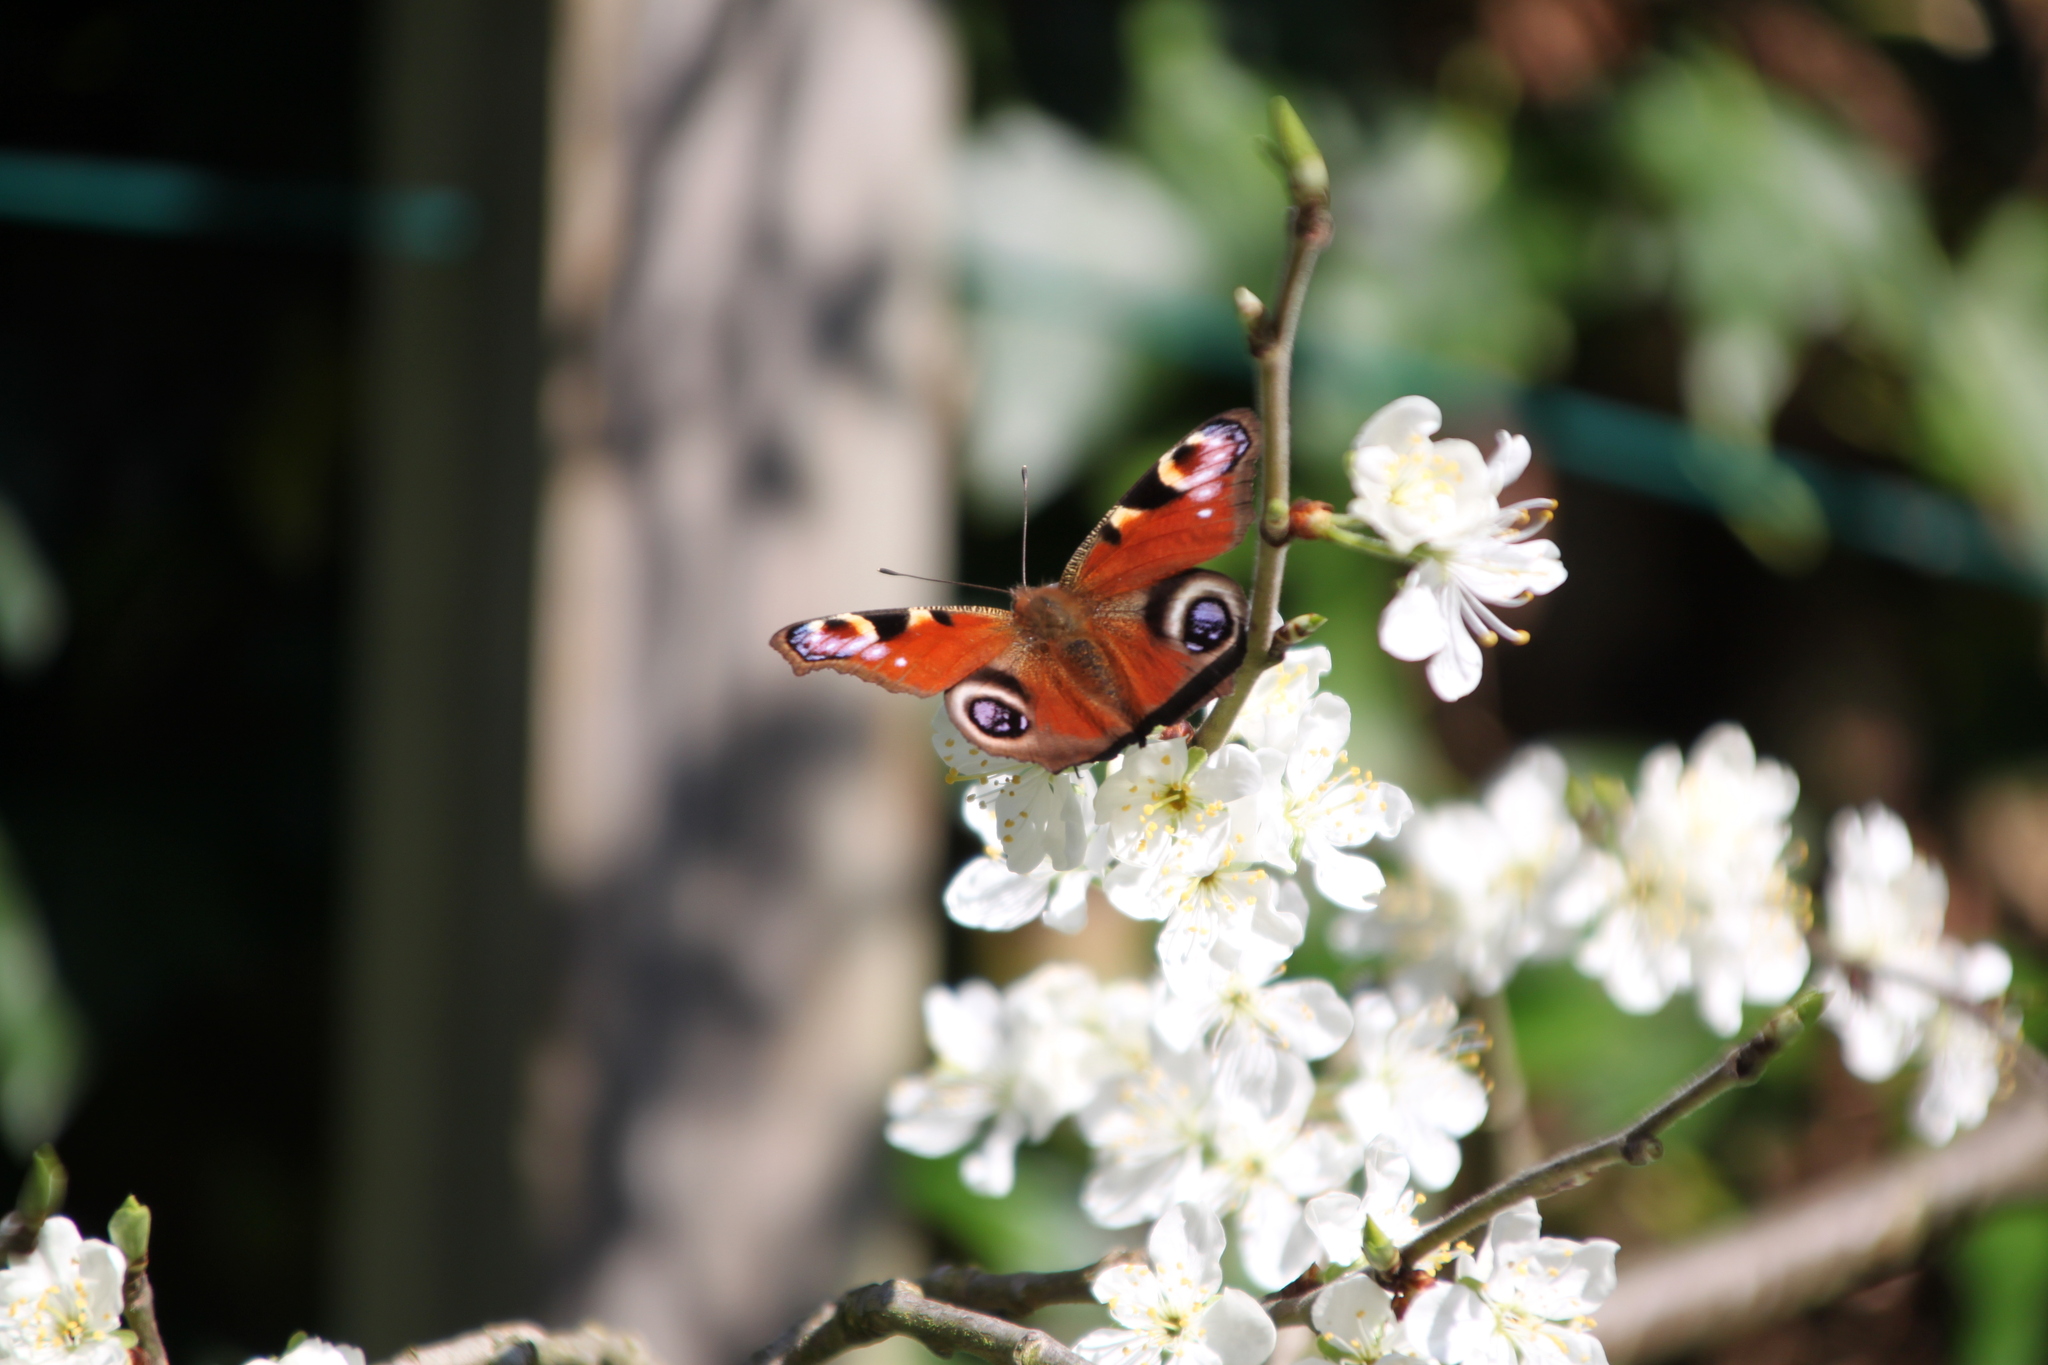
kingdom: Animalia
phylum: Arthropoda
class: Insecta
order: Lepidoptera
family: Nymphalidae
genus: Aglais
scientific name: Aglais io
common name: Peacock
